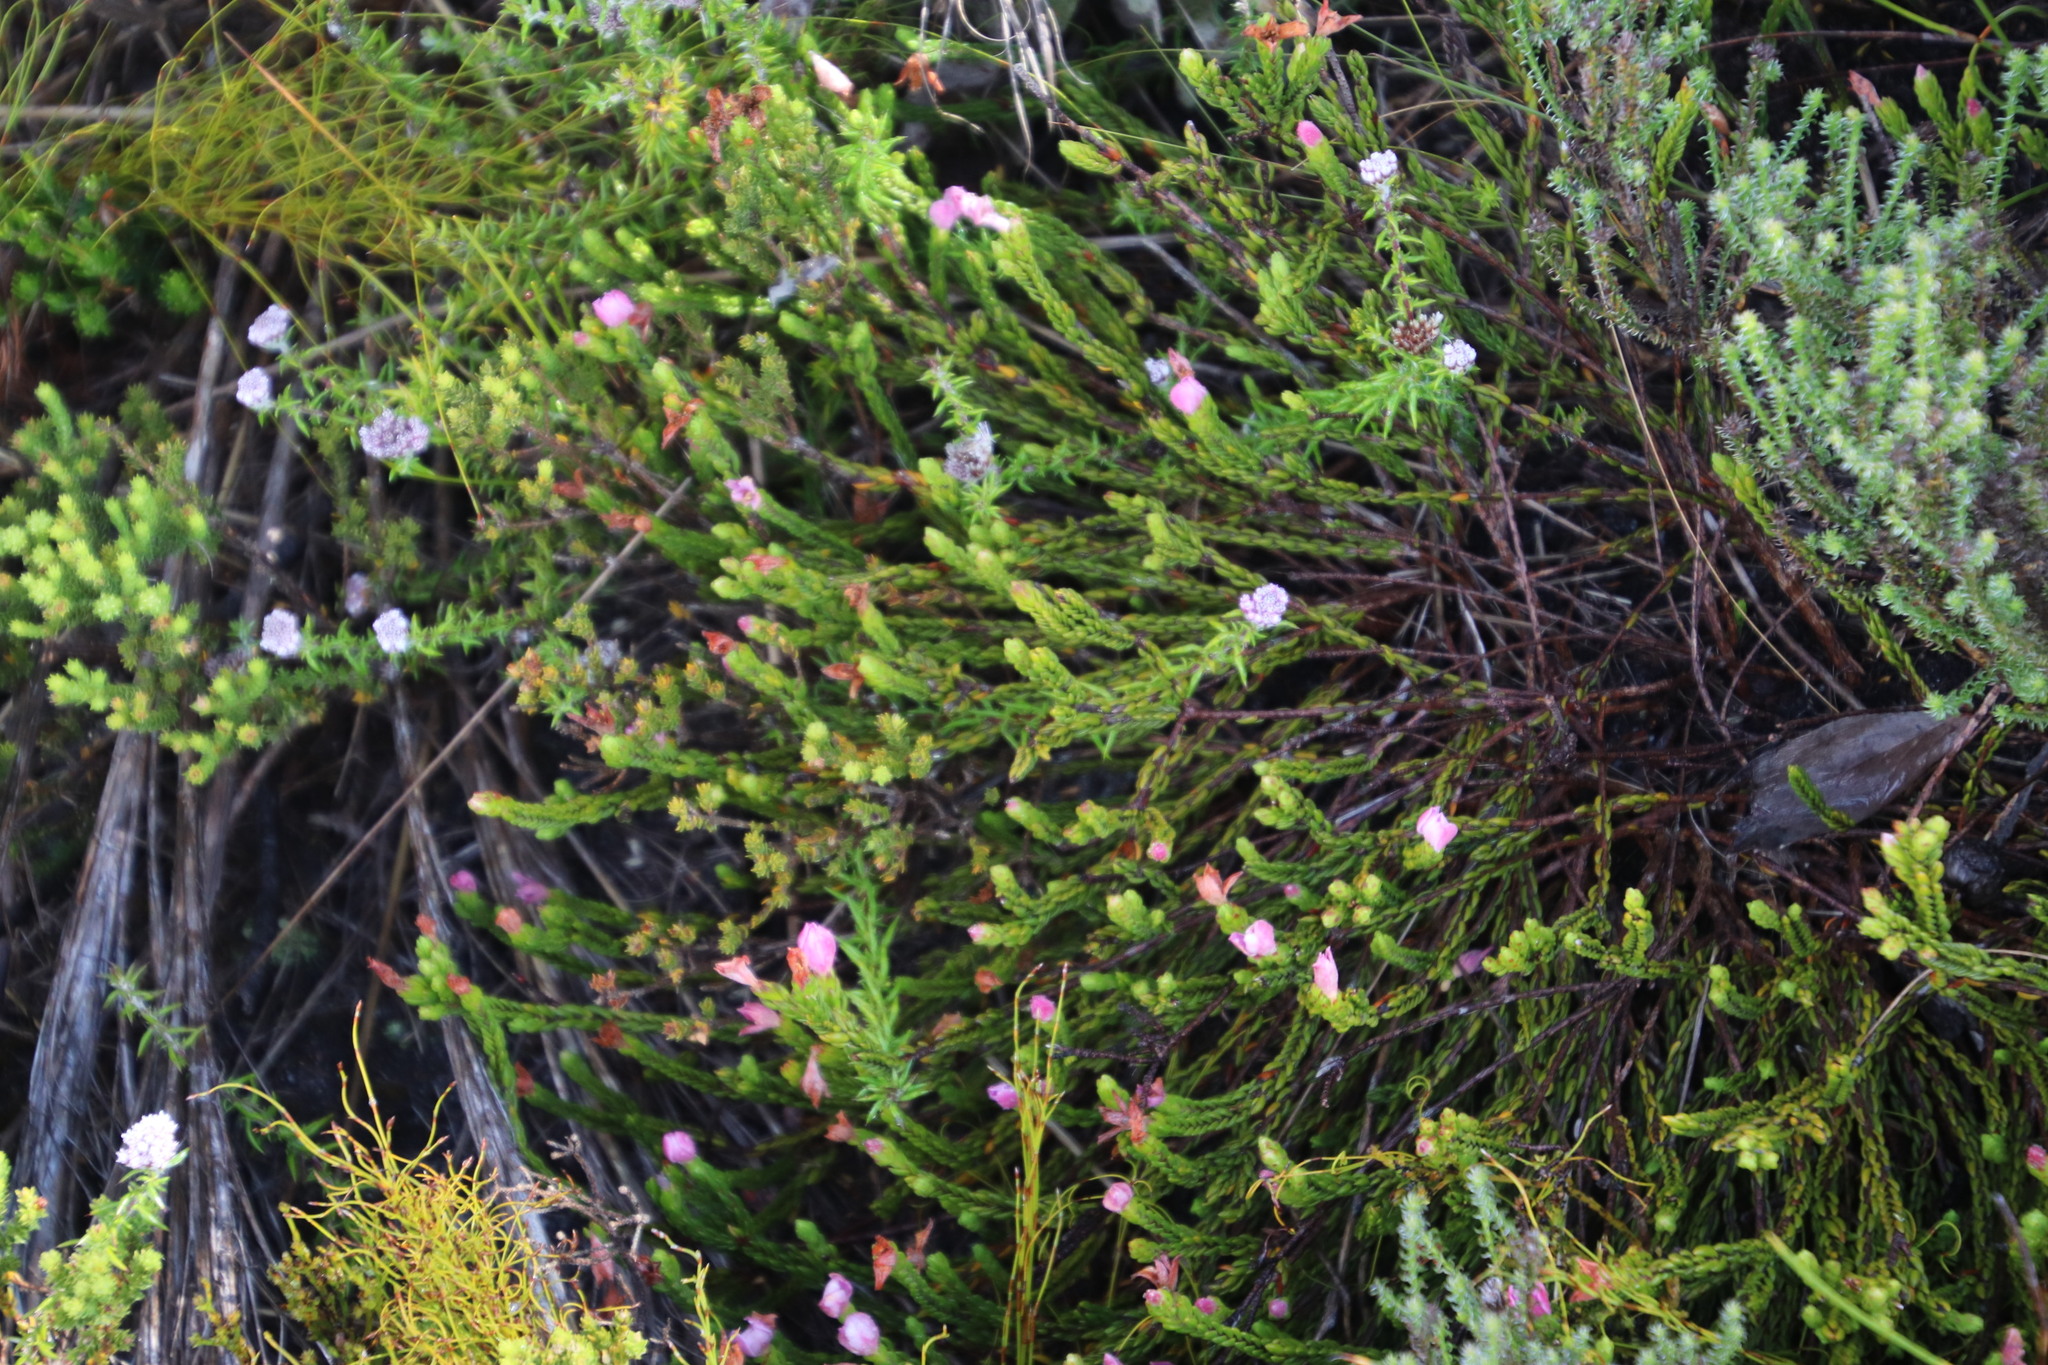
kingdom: Plantae
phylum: Tracheophyta
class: Magnoliopsida
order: Malvales
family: Thymelaeaceae
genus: Lachnaea
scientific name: Lachnaea grandiflora
